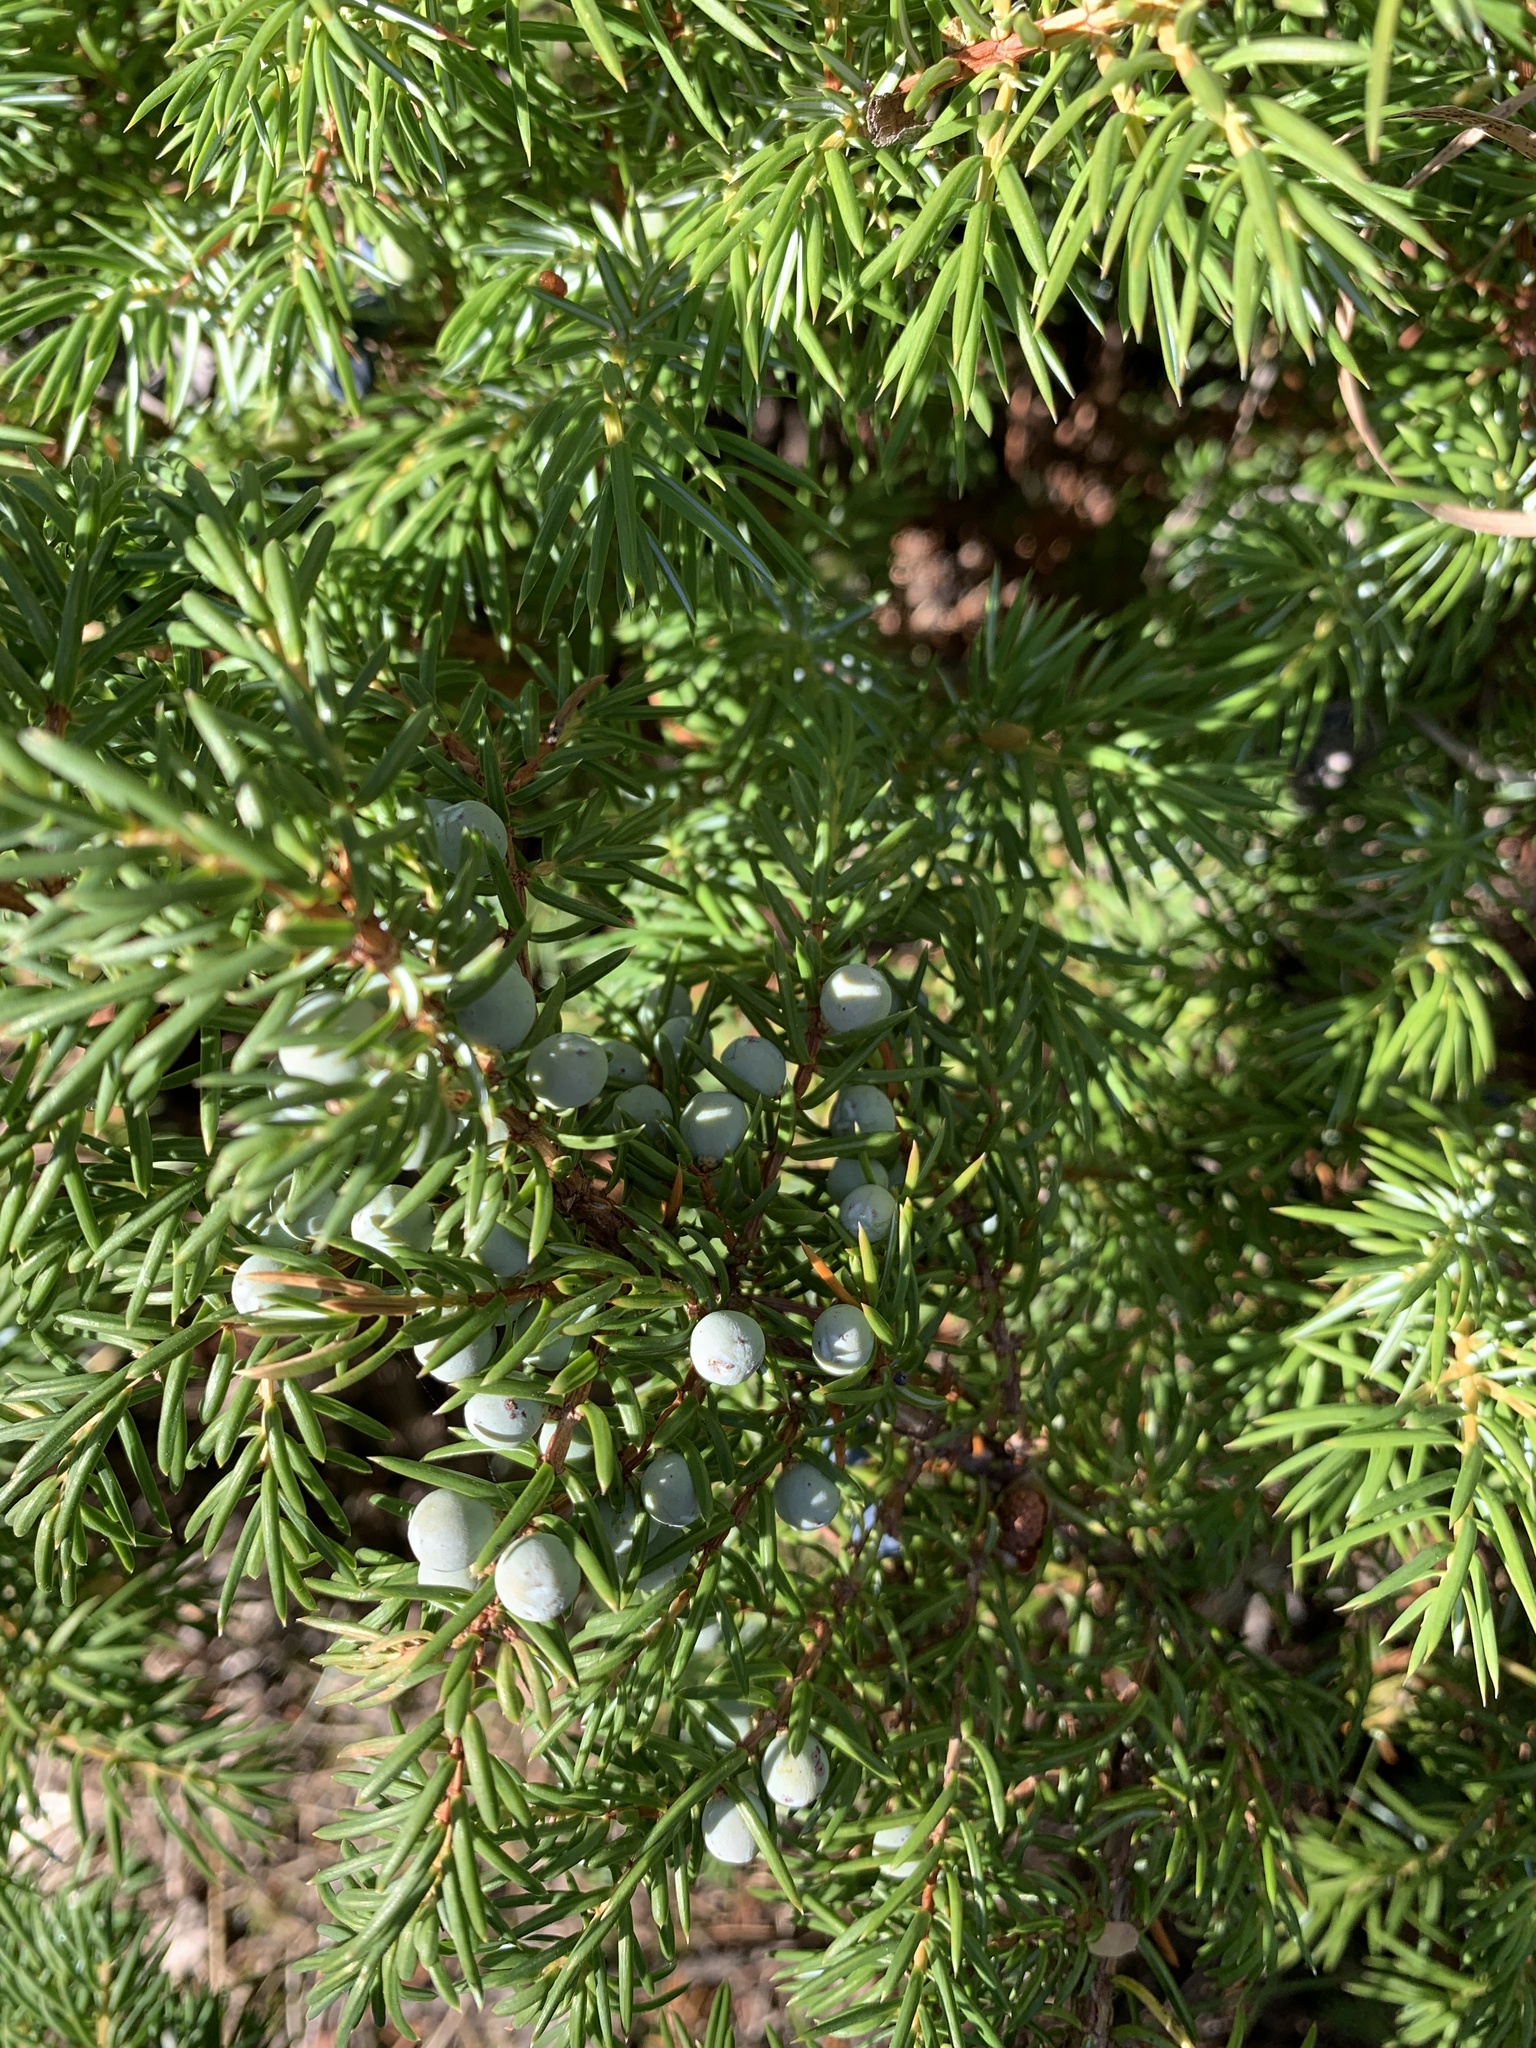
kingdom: Plantae
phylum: Tracheophyta
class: Pinopsida
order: Pinales
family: Cupressaceae
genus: Juniperus
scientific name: Juniperus communis
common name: Common juniper
